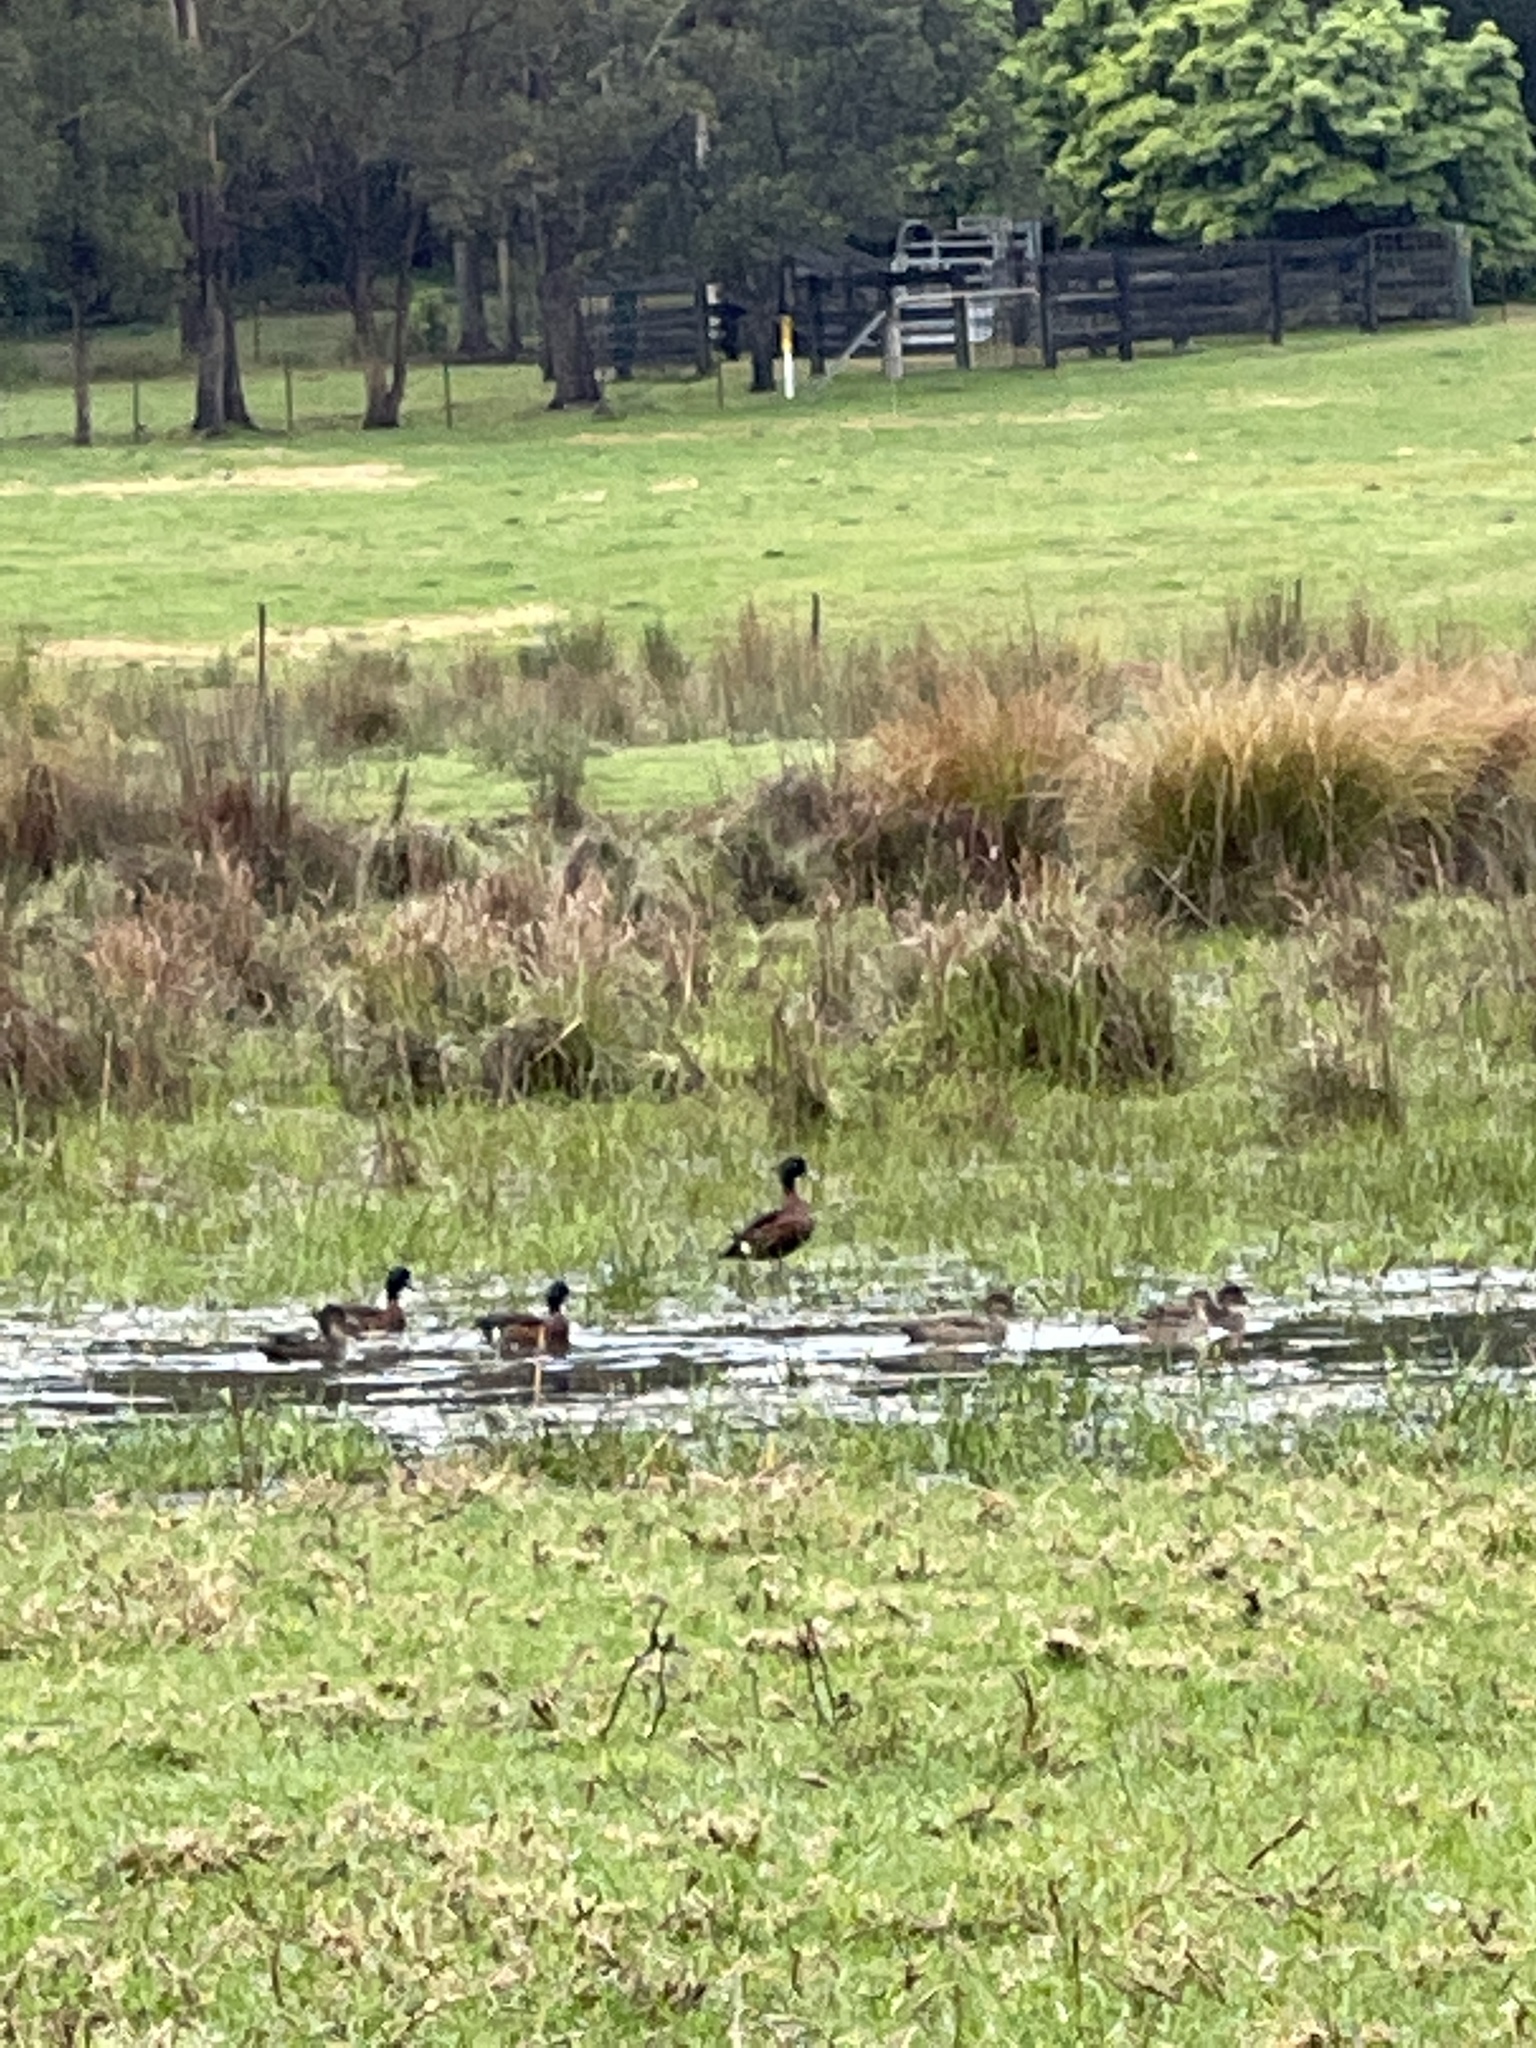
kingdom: Animalia
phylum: Chordata
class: Aves
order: Anseriformes
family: Anatidae
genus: Anas
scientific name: Anas castanea
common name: Chestnut teal
